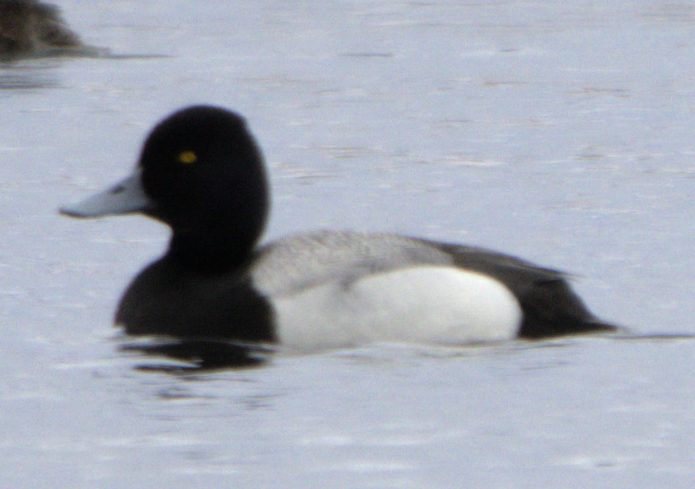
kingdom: Animalia
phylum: Chordata
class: Aves
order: Anseriformes
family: Anatidae
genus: Aythya
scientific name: Aythya affinis
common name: Lesser scaup
